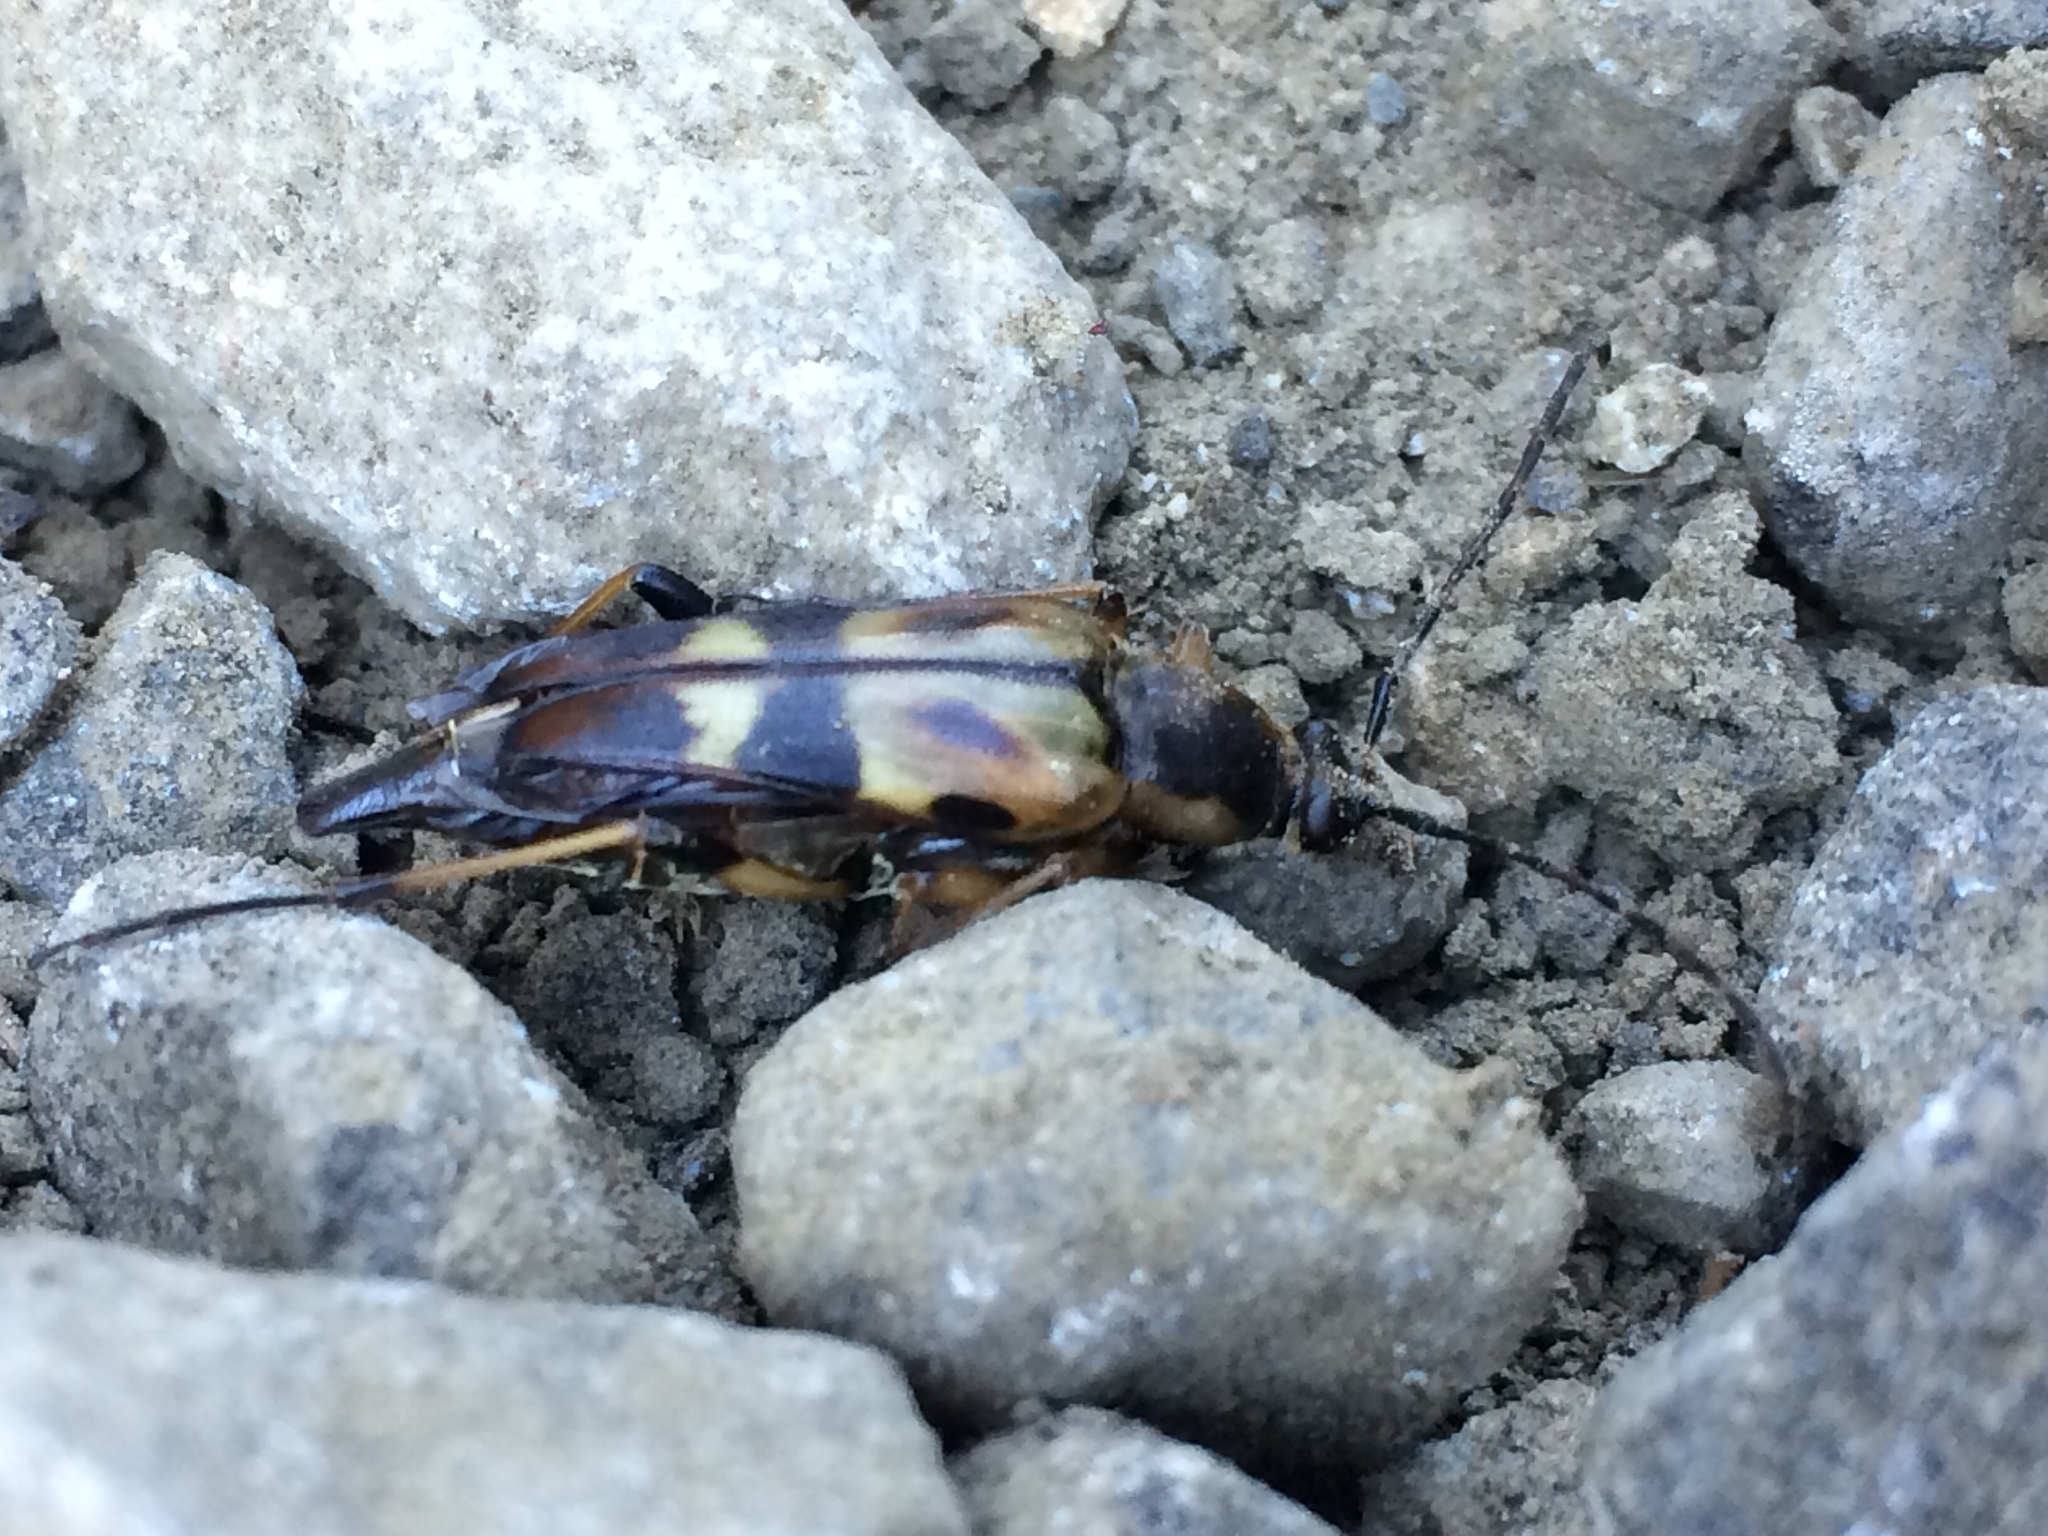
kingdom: Animalia
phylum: Arthropoda
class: Insecta
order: Coleoptera
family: Cerambycidae
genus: Etorofus
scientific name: Etorofus obliteratus
